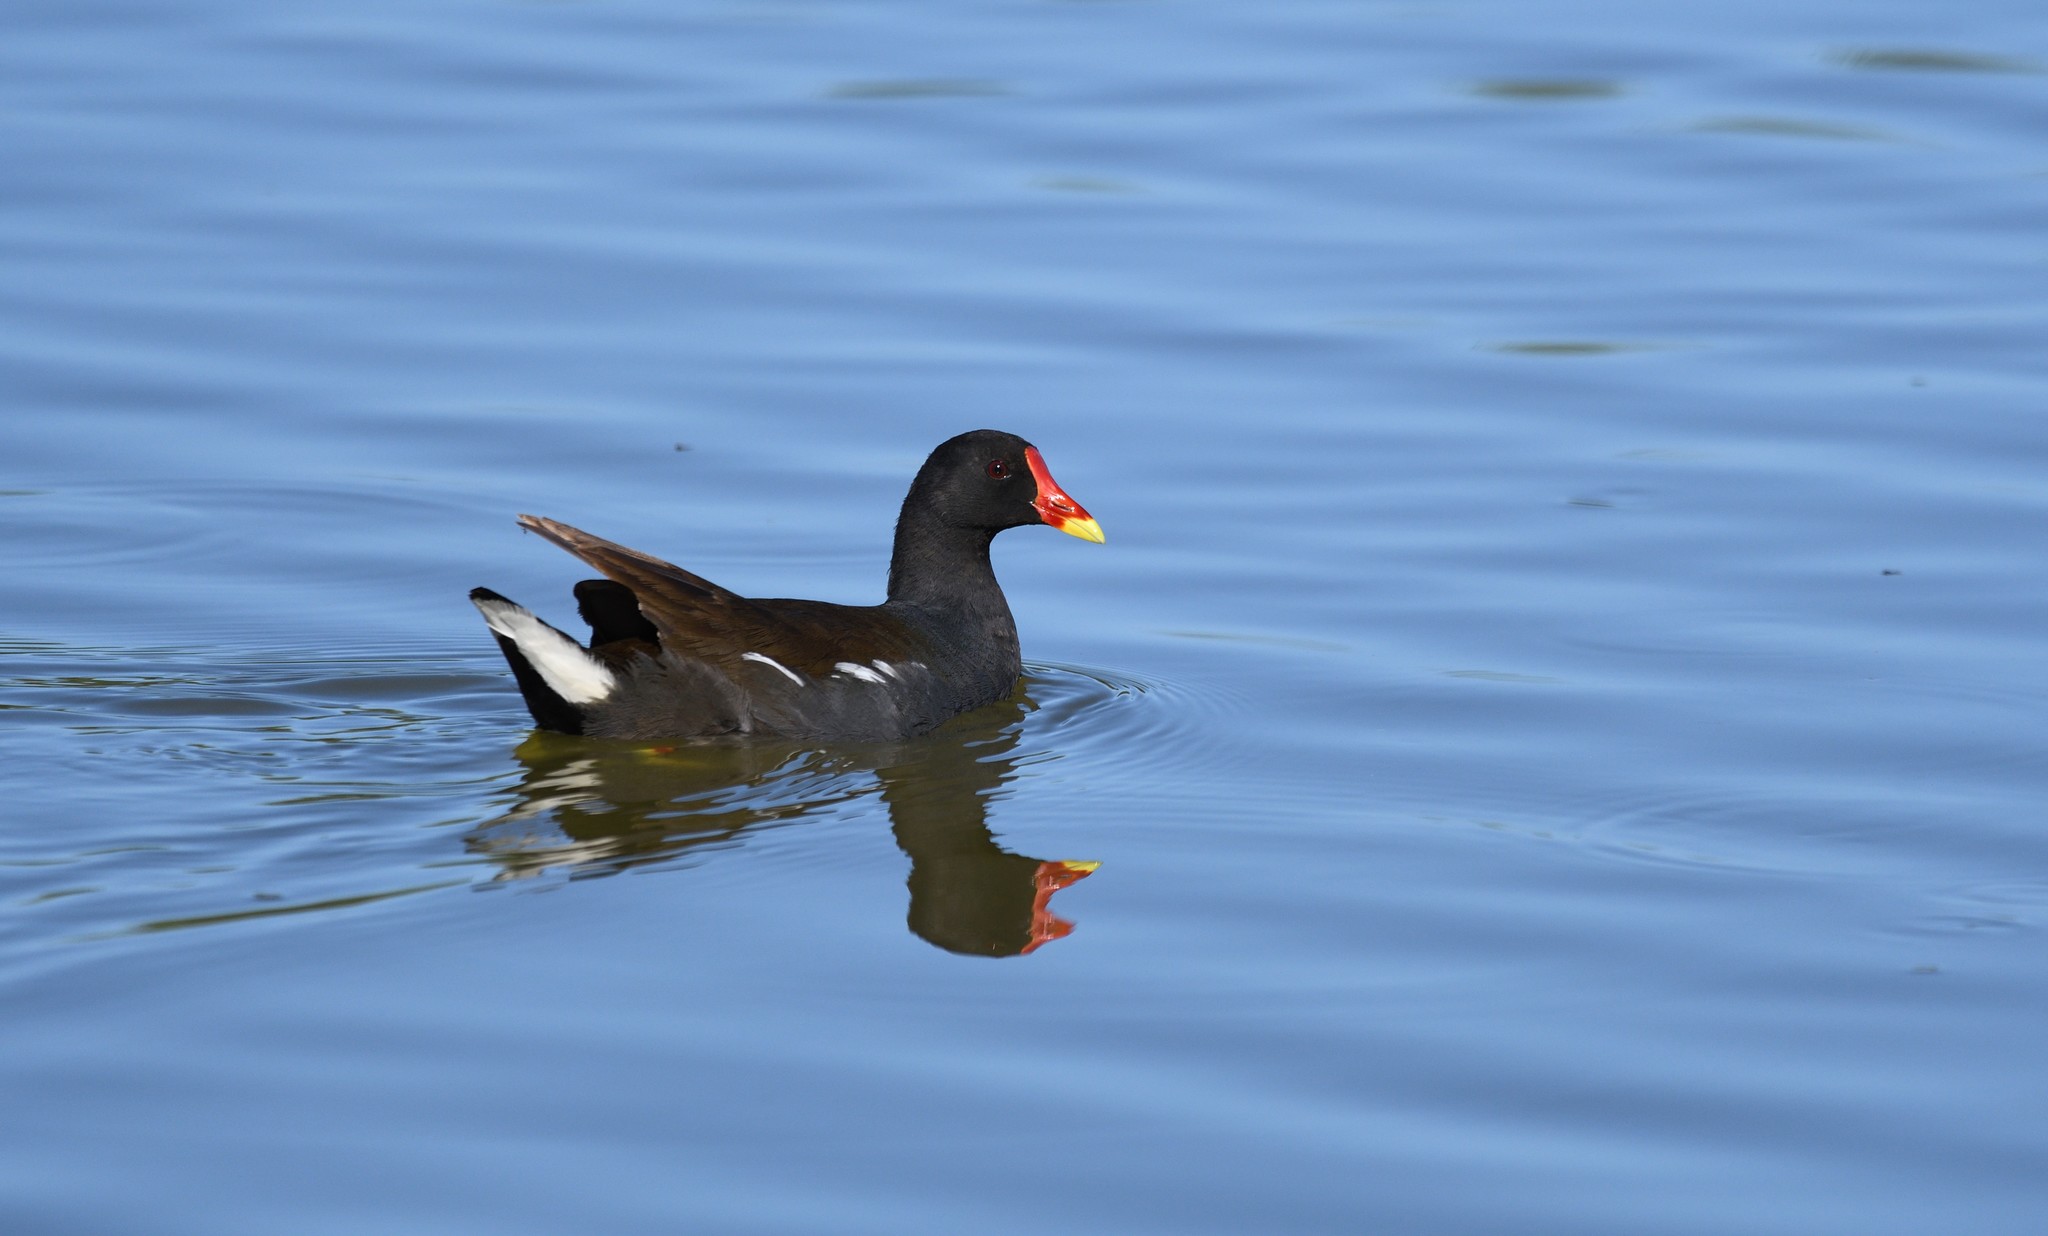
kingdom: Animalia
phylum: Chordata
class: Aves
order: Gruiformes
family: Rallidae
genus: Gallinula
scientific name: Gallinula chloropus
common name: Common moorhen
